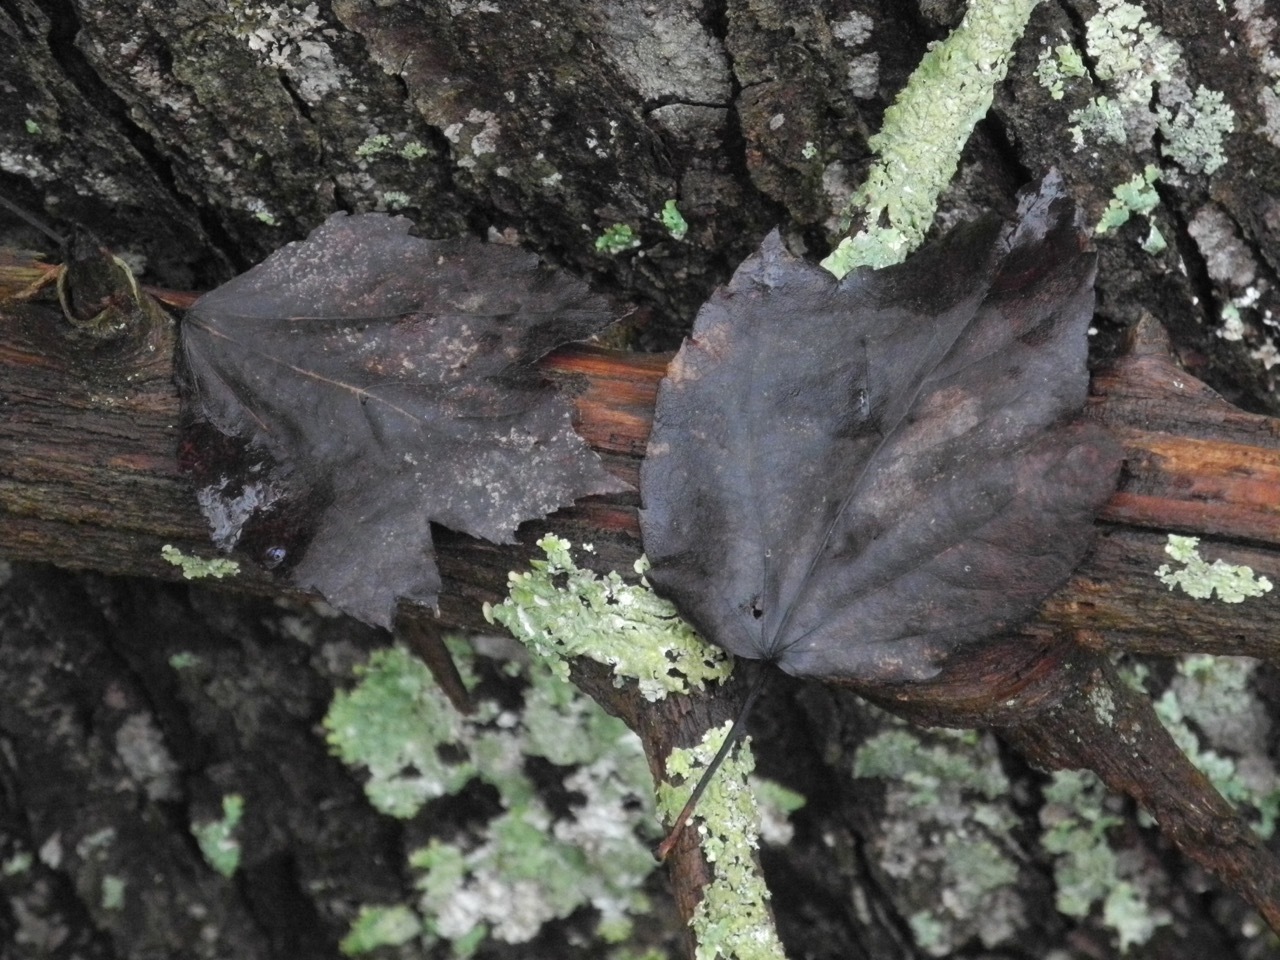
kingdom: Plantae
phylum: Tracheophyta
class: Magnoliopsida
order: Sapindales
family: Sapindaceae
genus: Acer
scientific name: Acer rubrum
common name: Red maple
